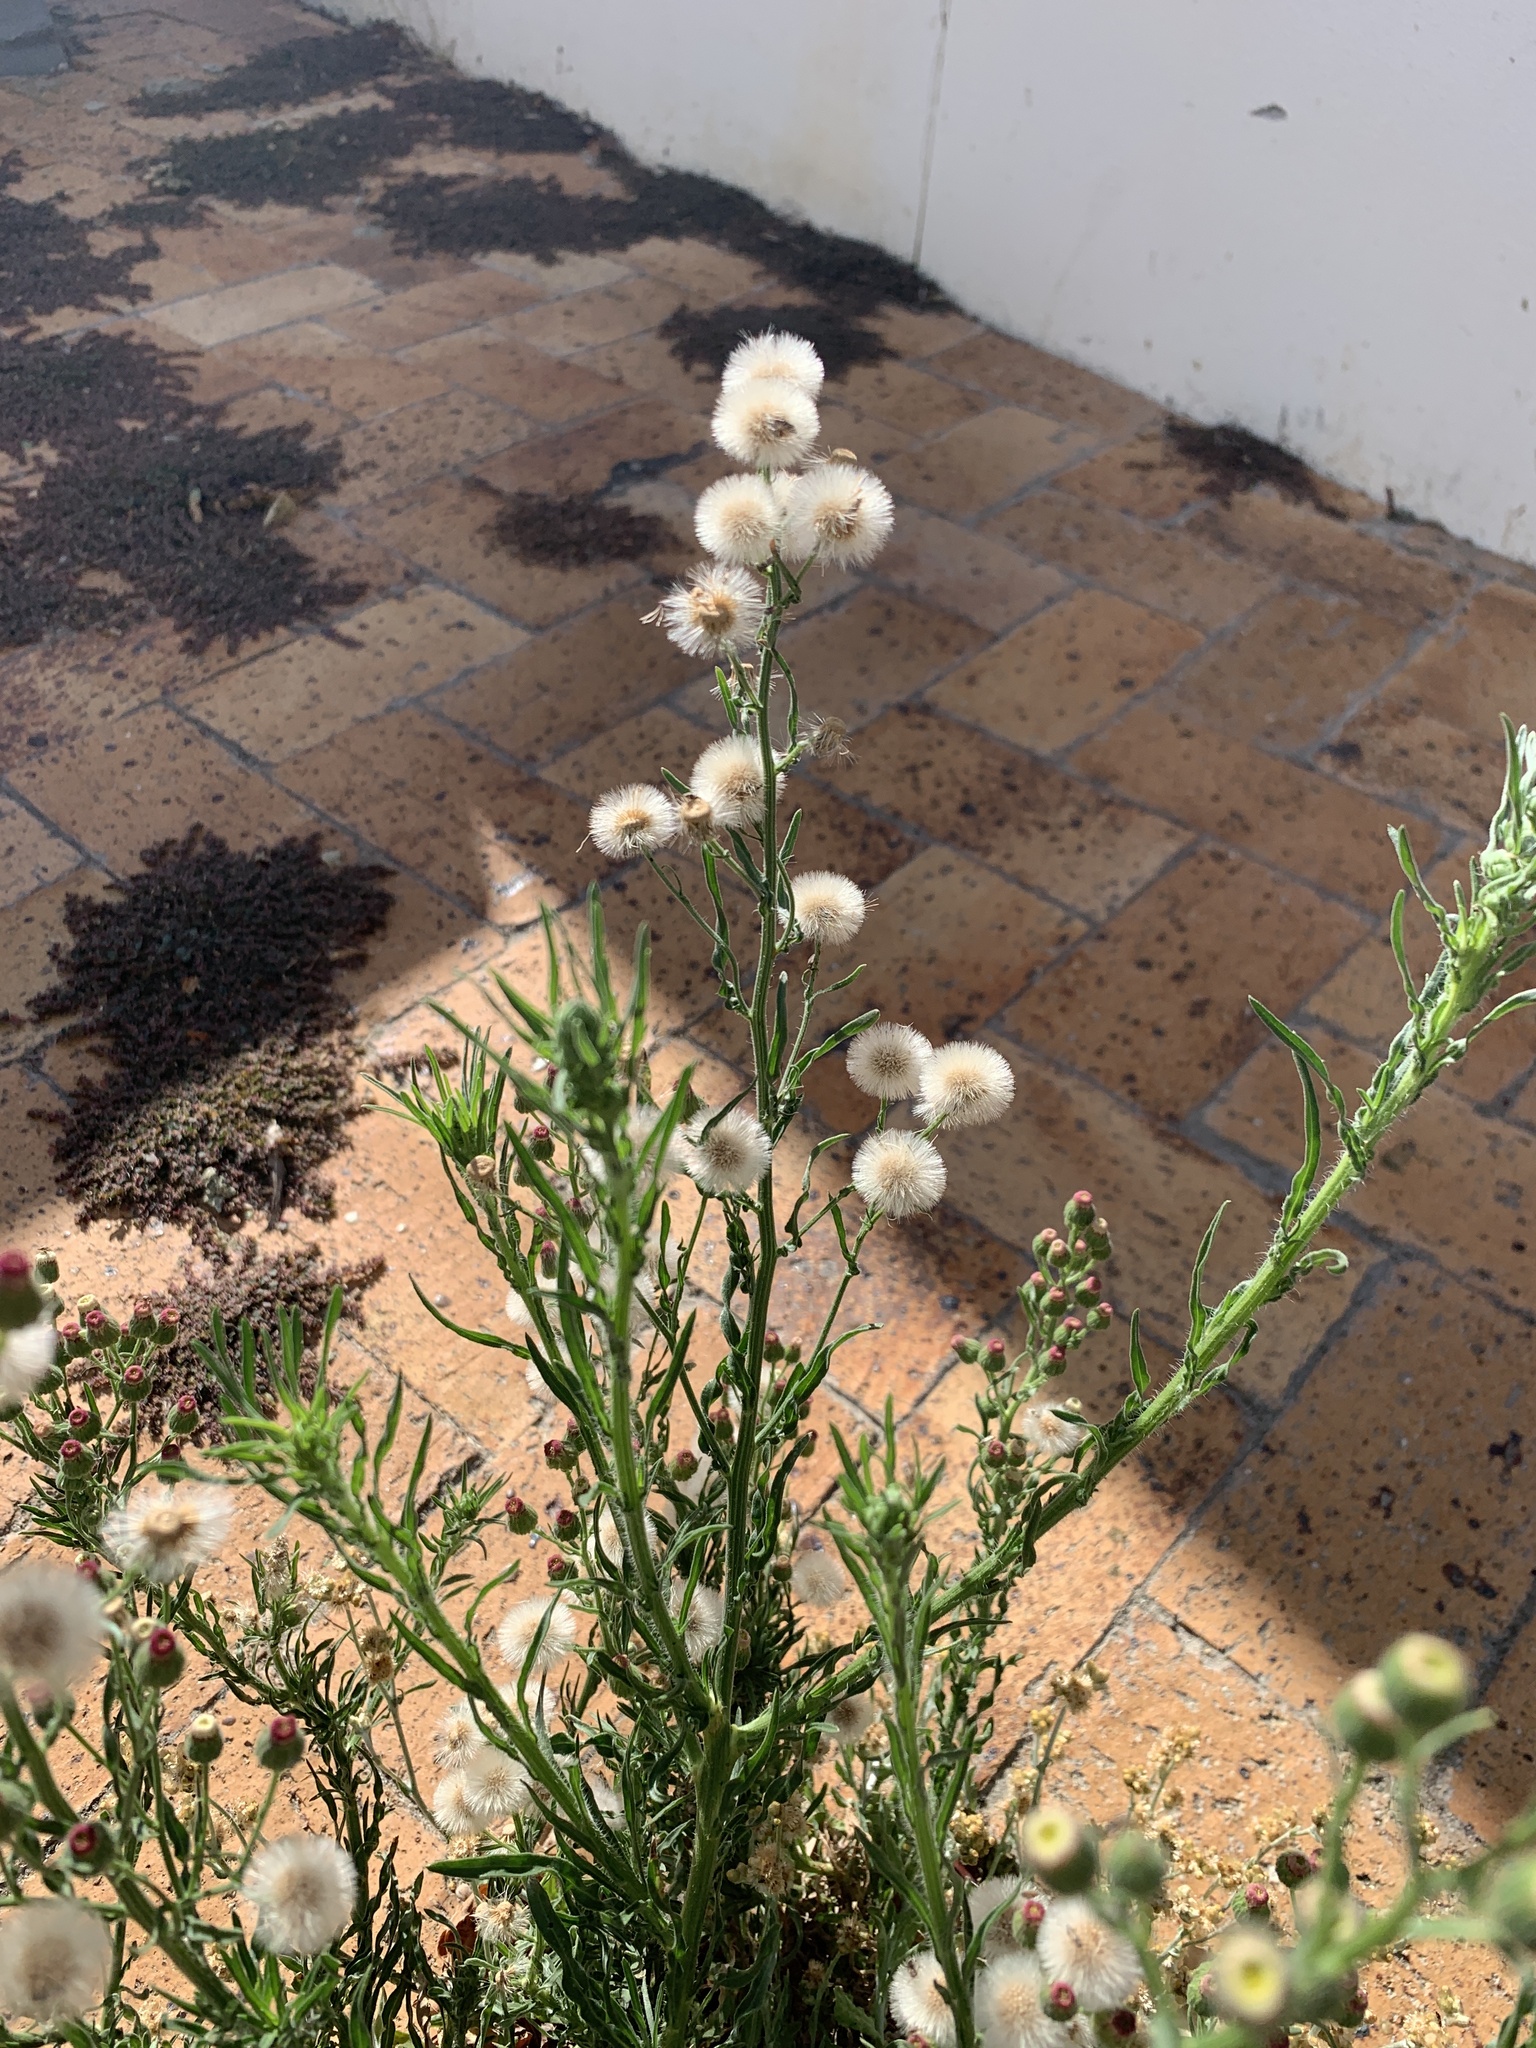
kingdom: Plantae
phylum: Tracheophyta
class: Magnoliopsida
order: Asterales
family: Asteraceae
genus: Erigeron
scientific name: Erigeron bonariensis
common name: Argentine fleabane
